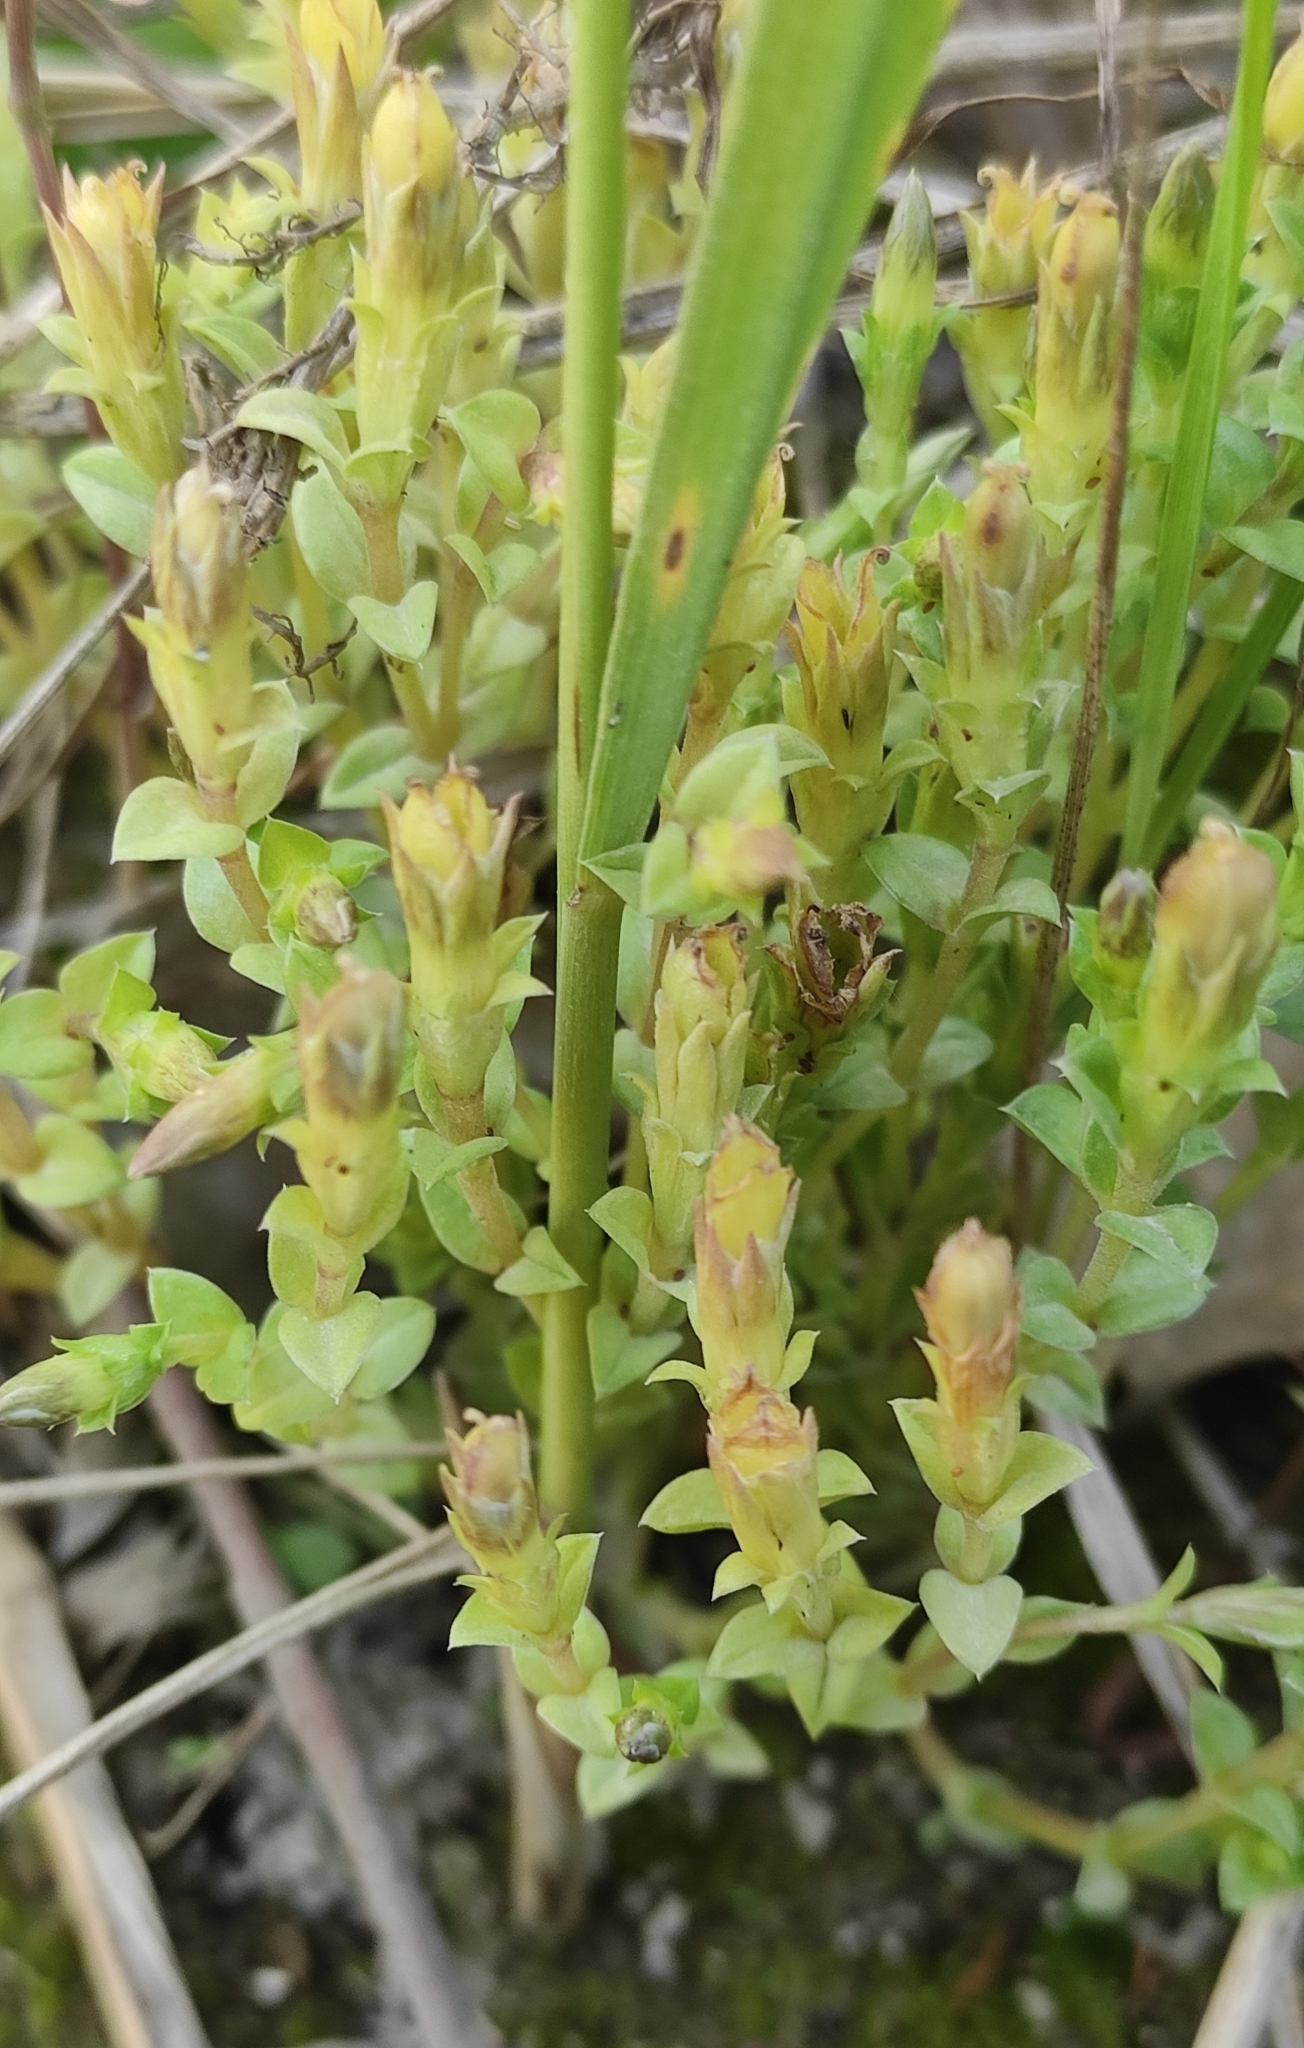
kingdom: Plantae
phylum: Tracheophyta
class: Magnoliopsida
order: Gentianales
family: Gentianaceae
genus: Gentiana
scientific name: Gentiana squarrosa
